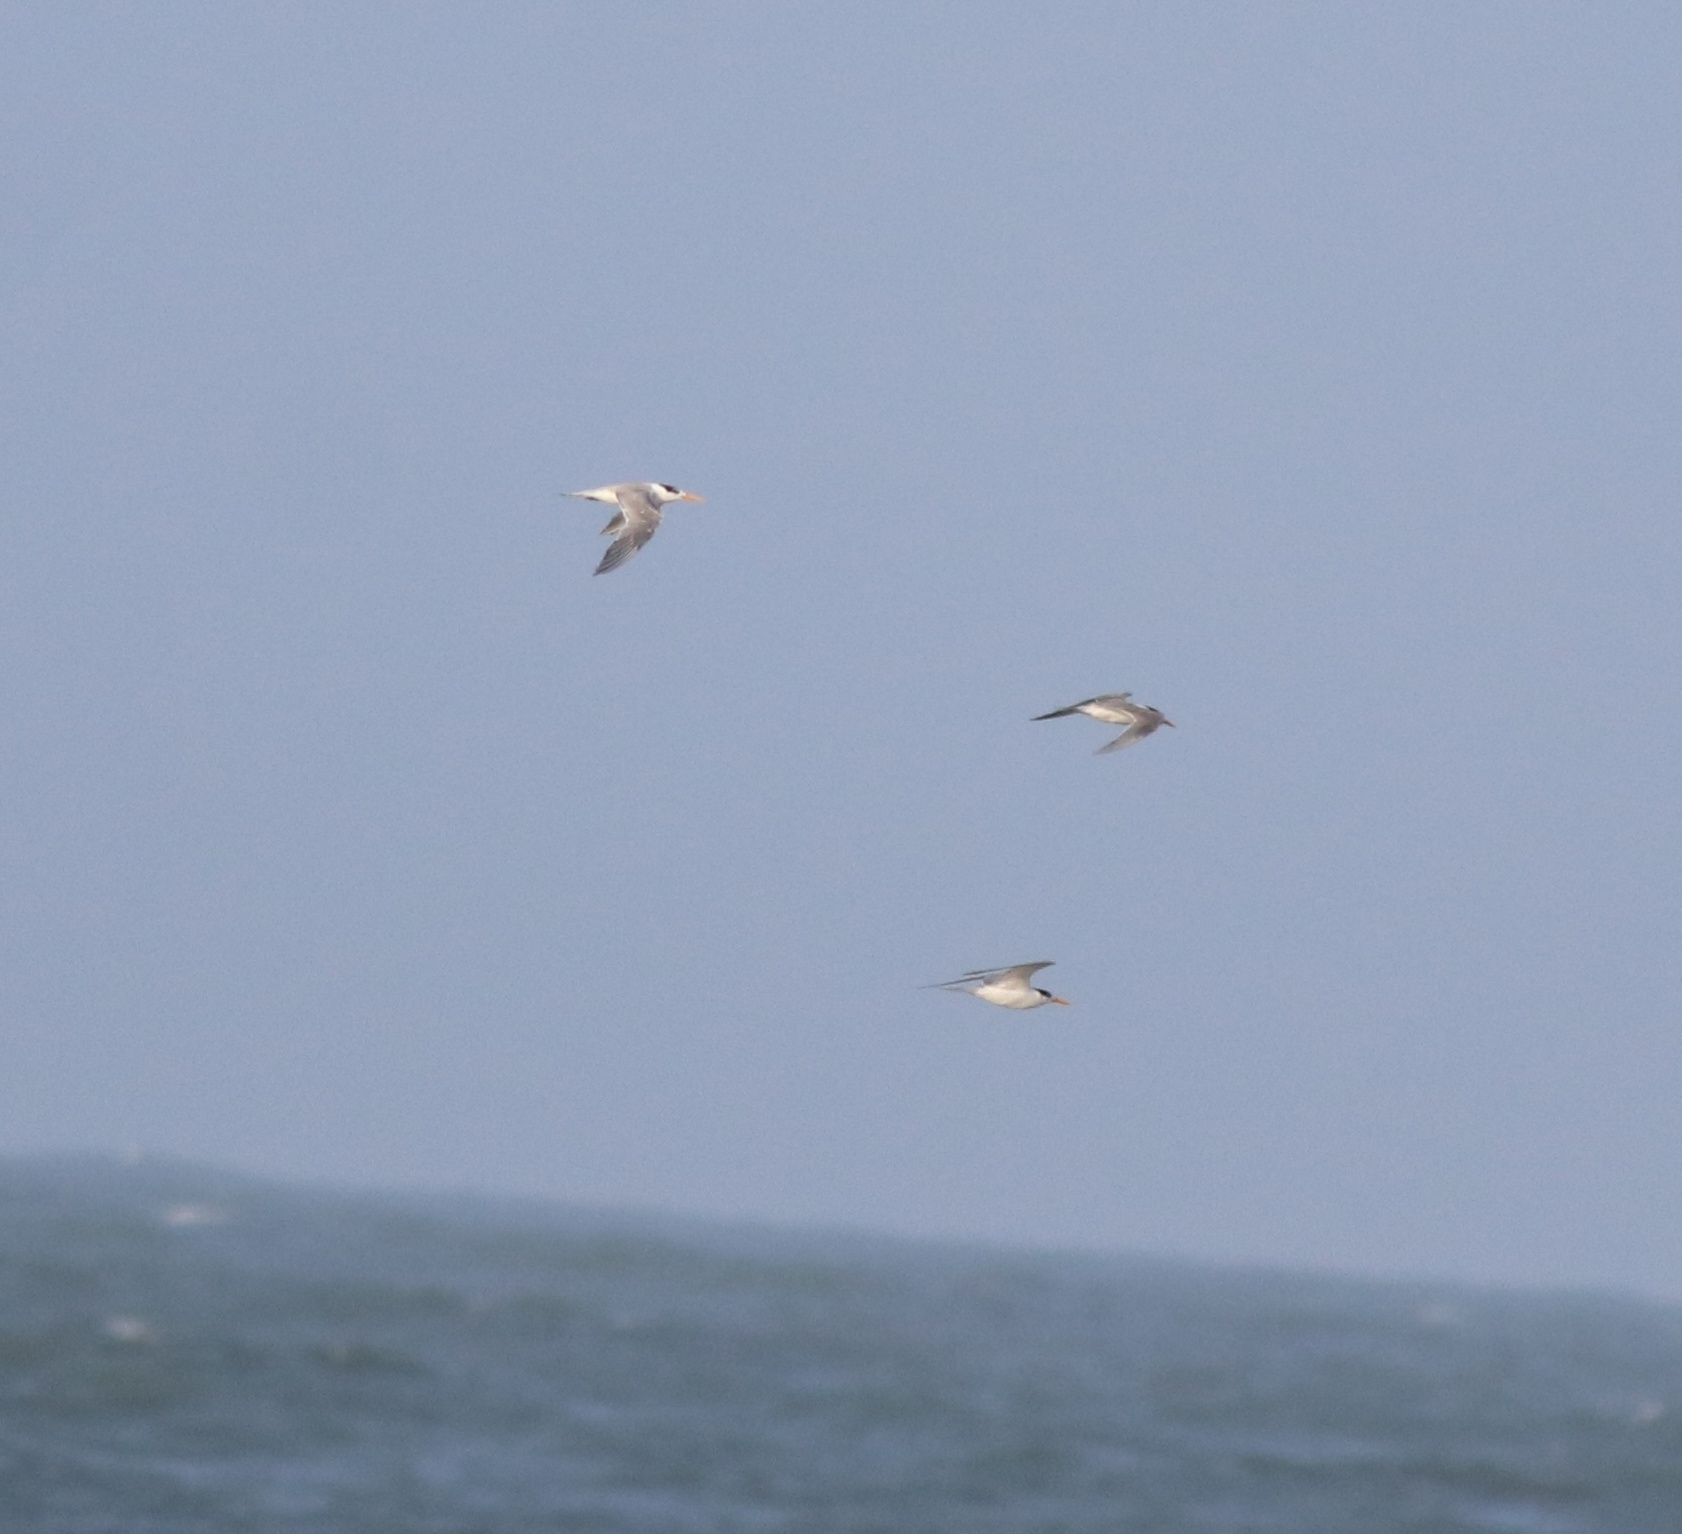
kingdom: Animalia
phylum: Chordata
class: Aves
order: Charadriiformes
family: Laridae
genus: Thalasseus
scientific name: Thalasseus bengalensis
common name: Lesser crested tern
